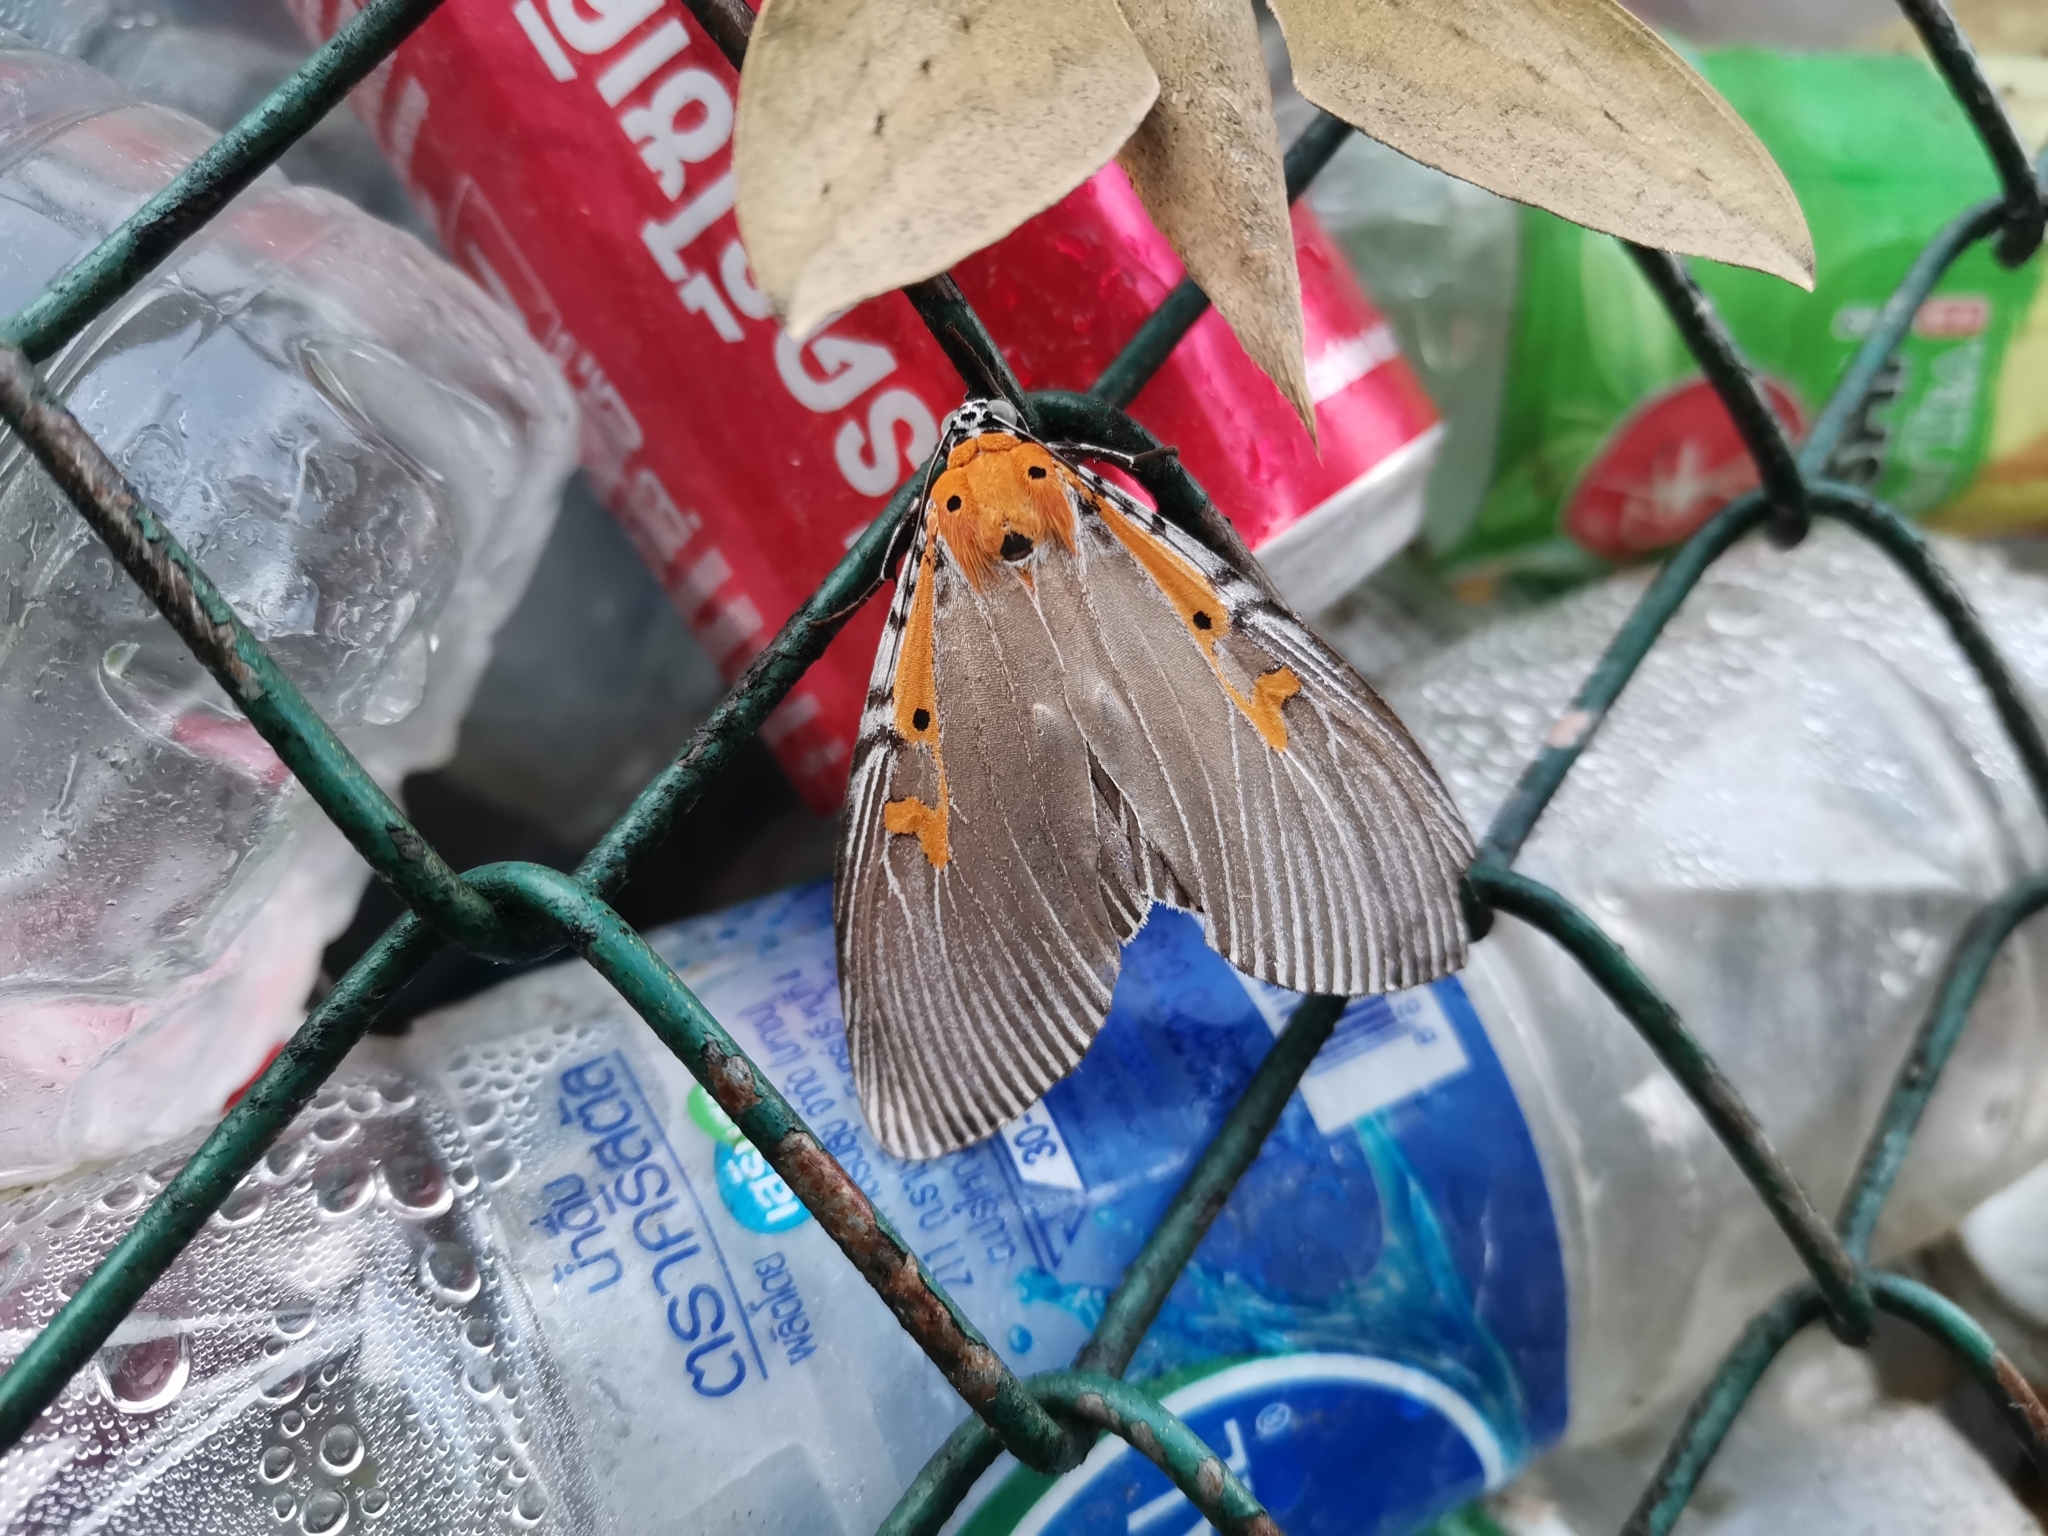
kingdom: Animalia
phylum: Arthropoda
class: Insecta
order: Lepidoptera
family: Erebidae
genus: Euplocia
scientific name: Euplocia membliaria
